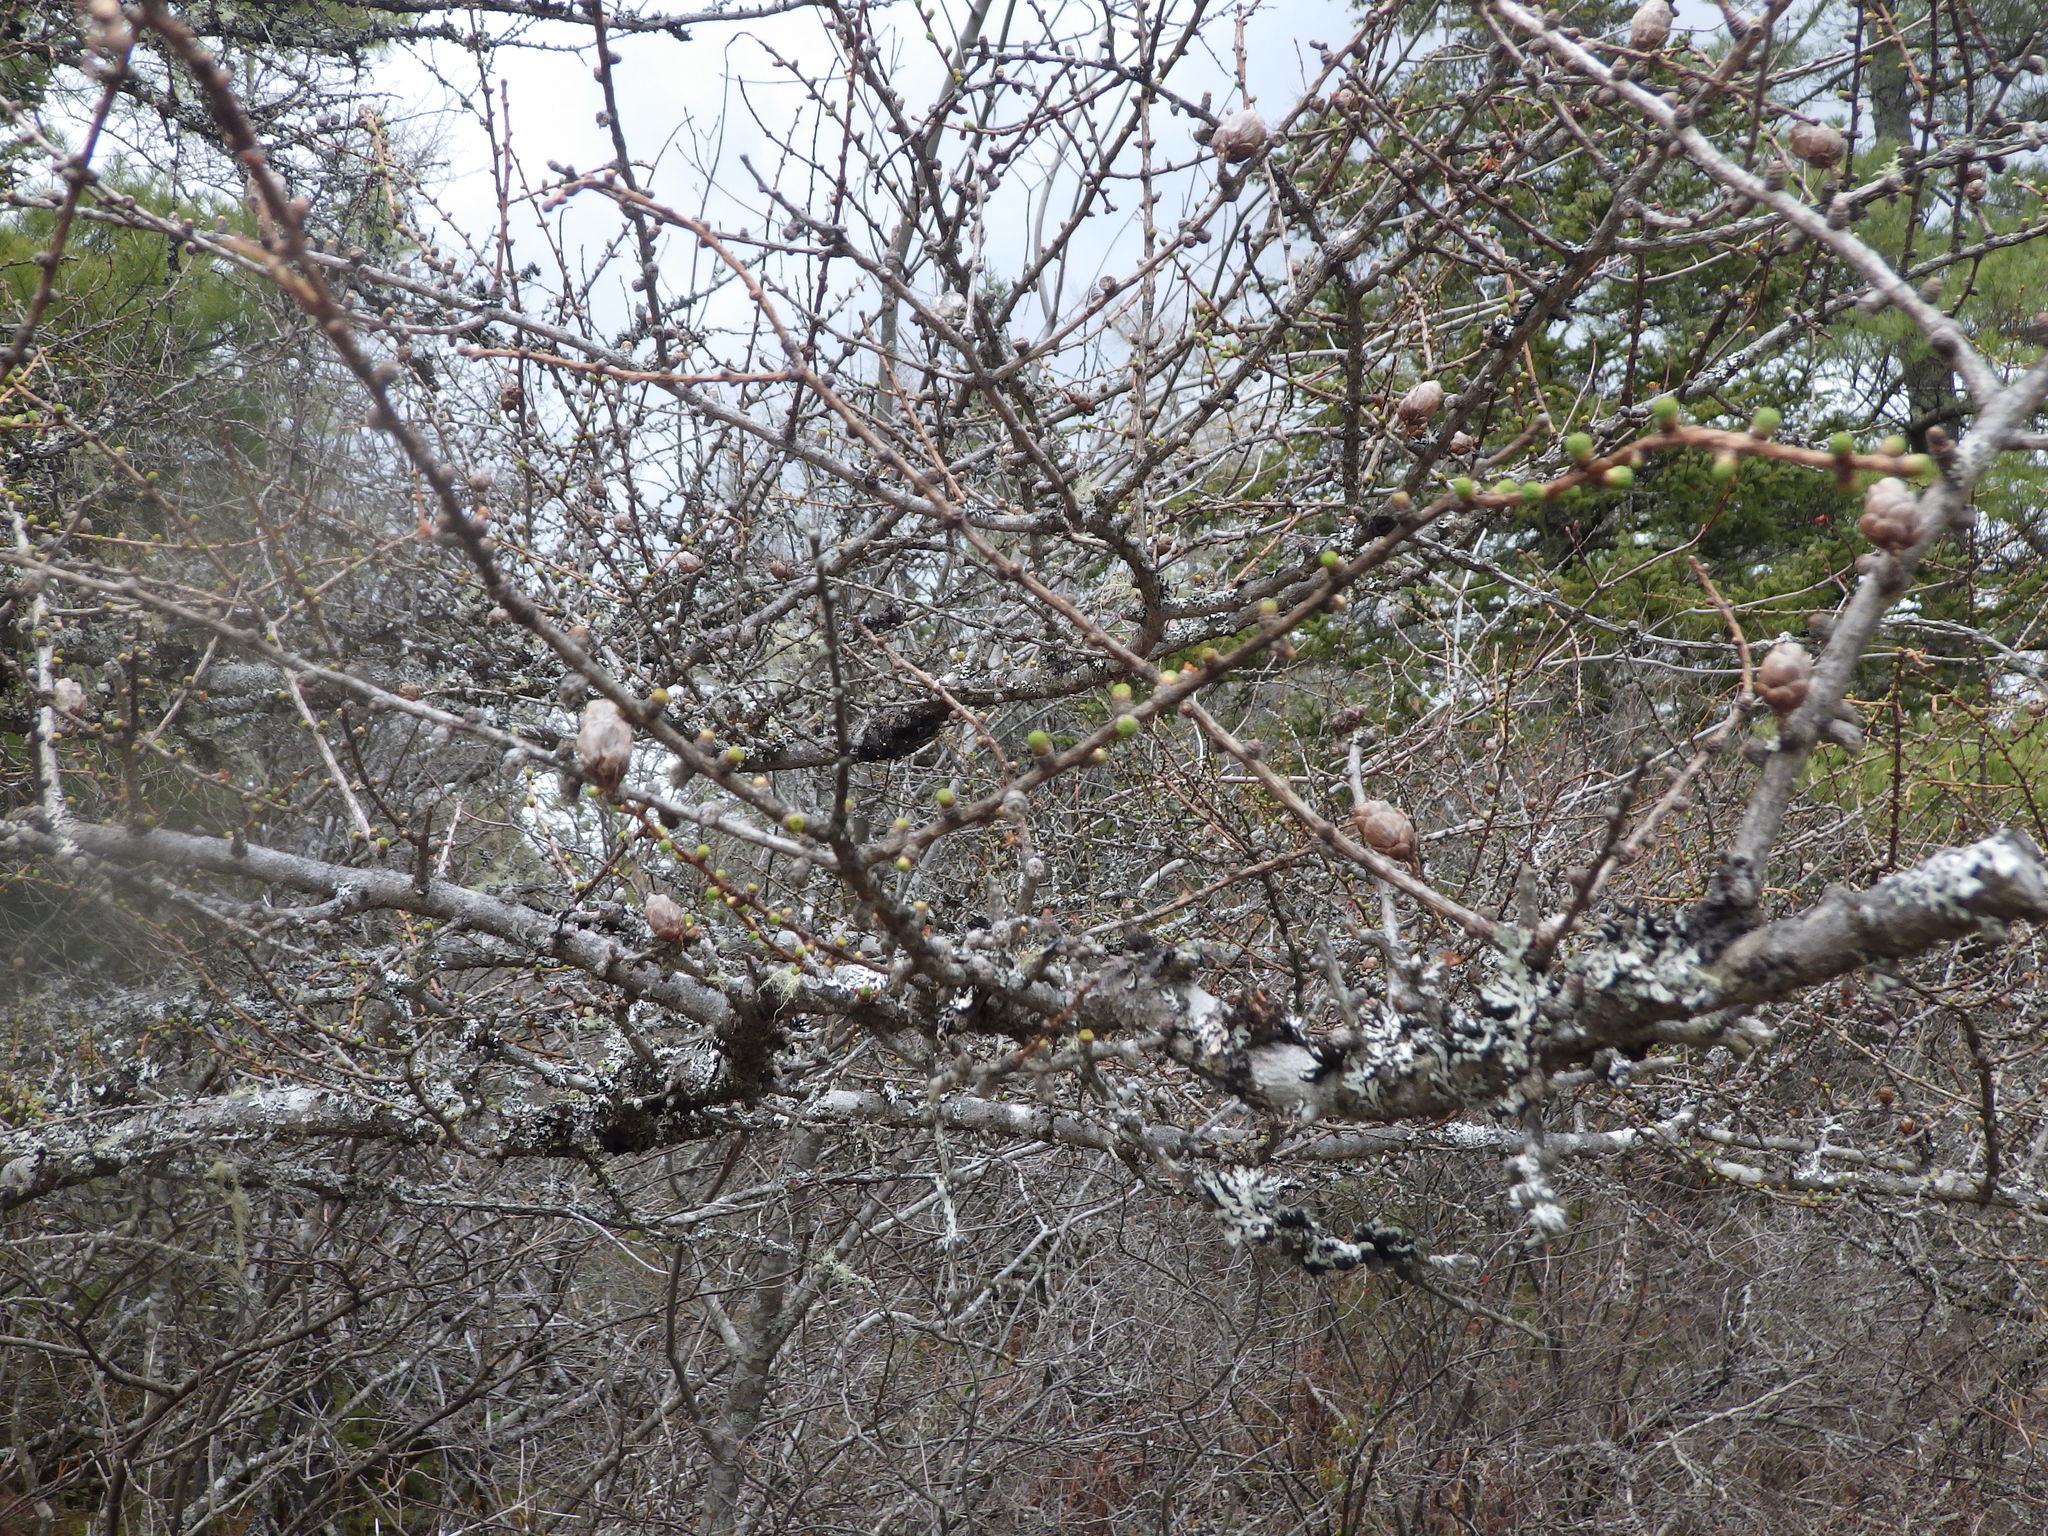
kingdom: Plantae
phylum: Tracheophyta
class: Pinopsida
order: Pinales
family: Pinaceae
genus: Larix
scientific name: Larix laricina
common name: American larch
